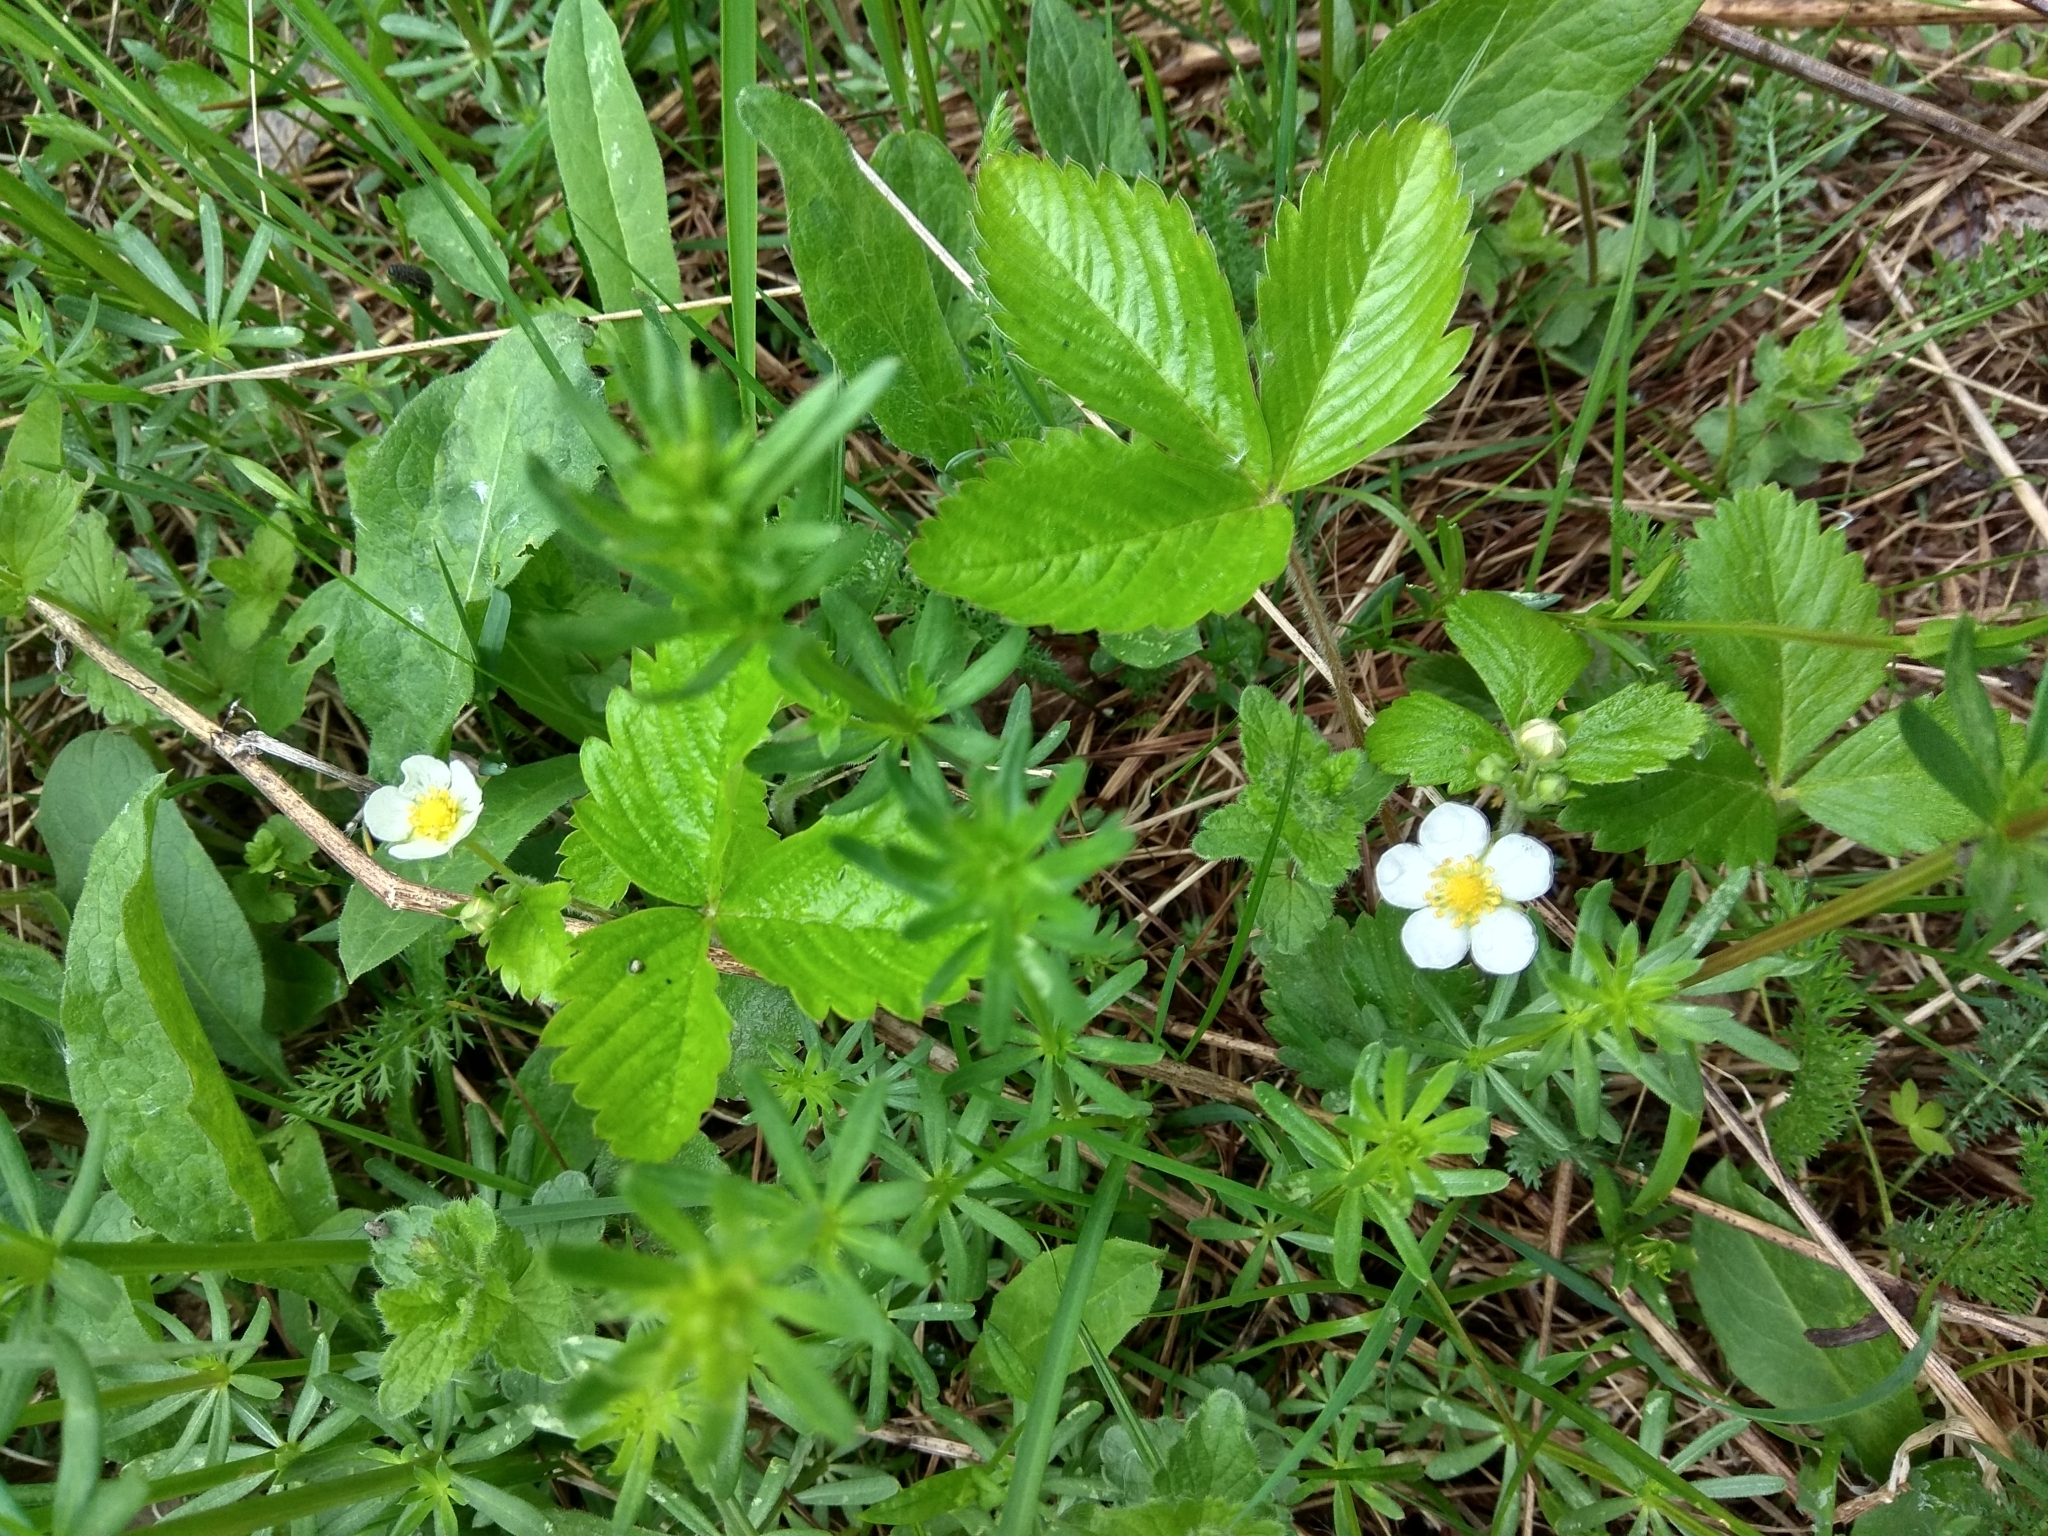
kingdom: Plantae
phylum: Tracheophyta
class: Magnoliopsida
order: Rosales
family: Rosaceae
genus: Fragaria
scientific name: Fragaria vesca
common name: Wild strawberry
